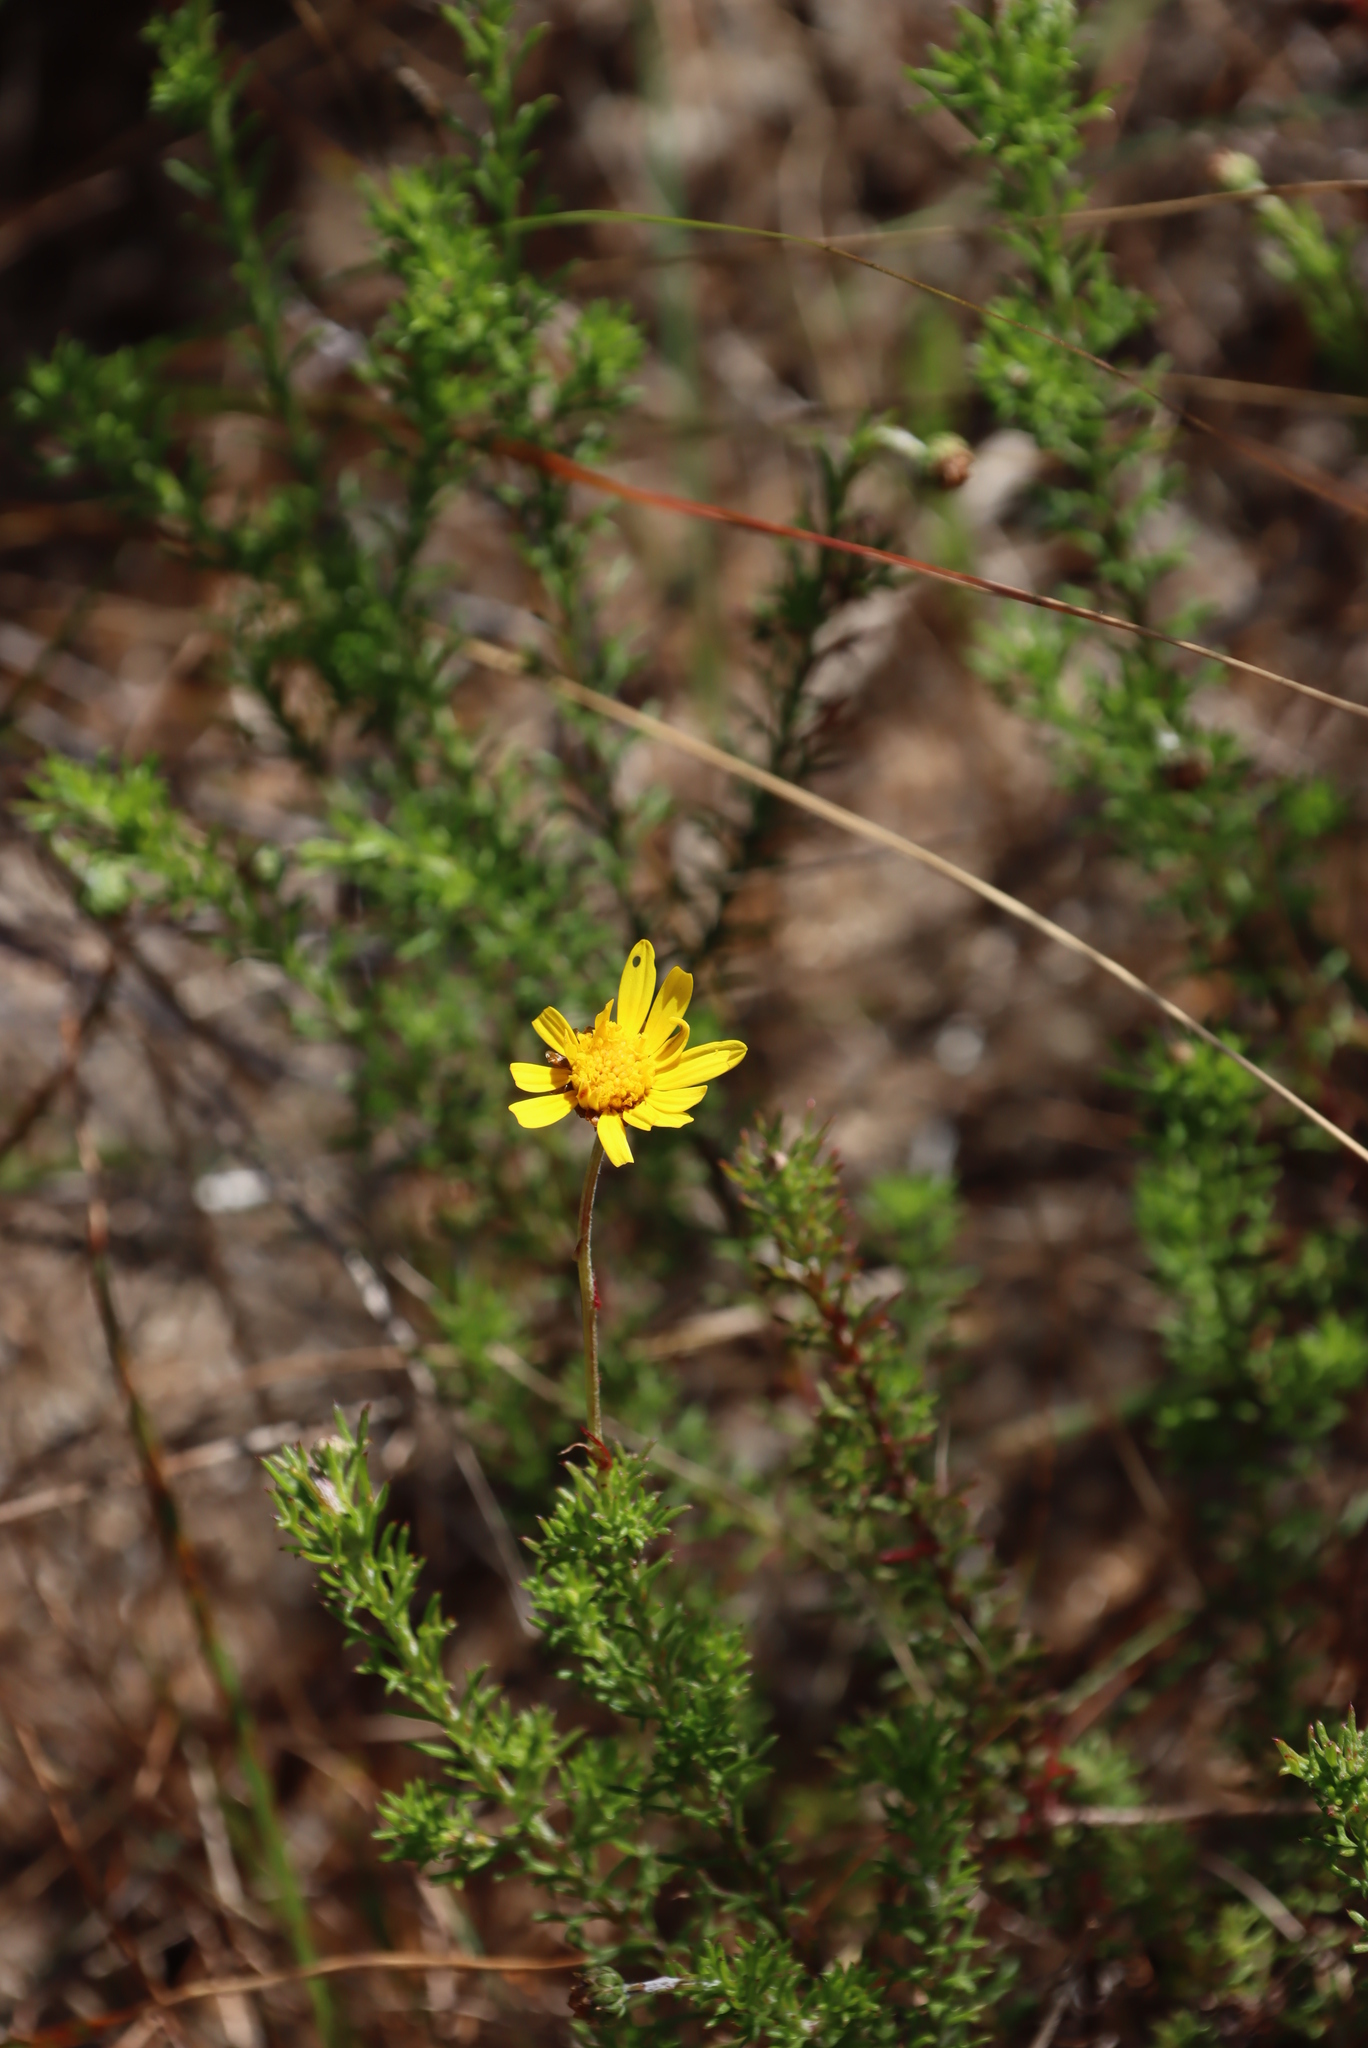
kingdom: Plantae
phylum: Tracheophyta
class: Magnoliopsida
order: Asterales
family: Asteraceae
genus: Ursinia
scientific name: Ursinia trifida
